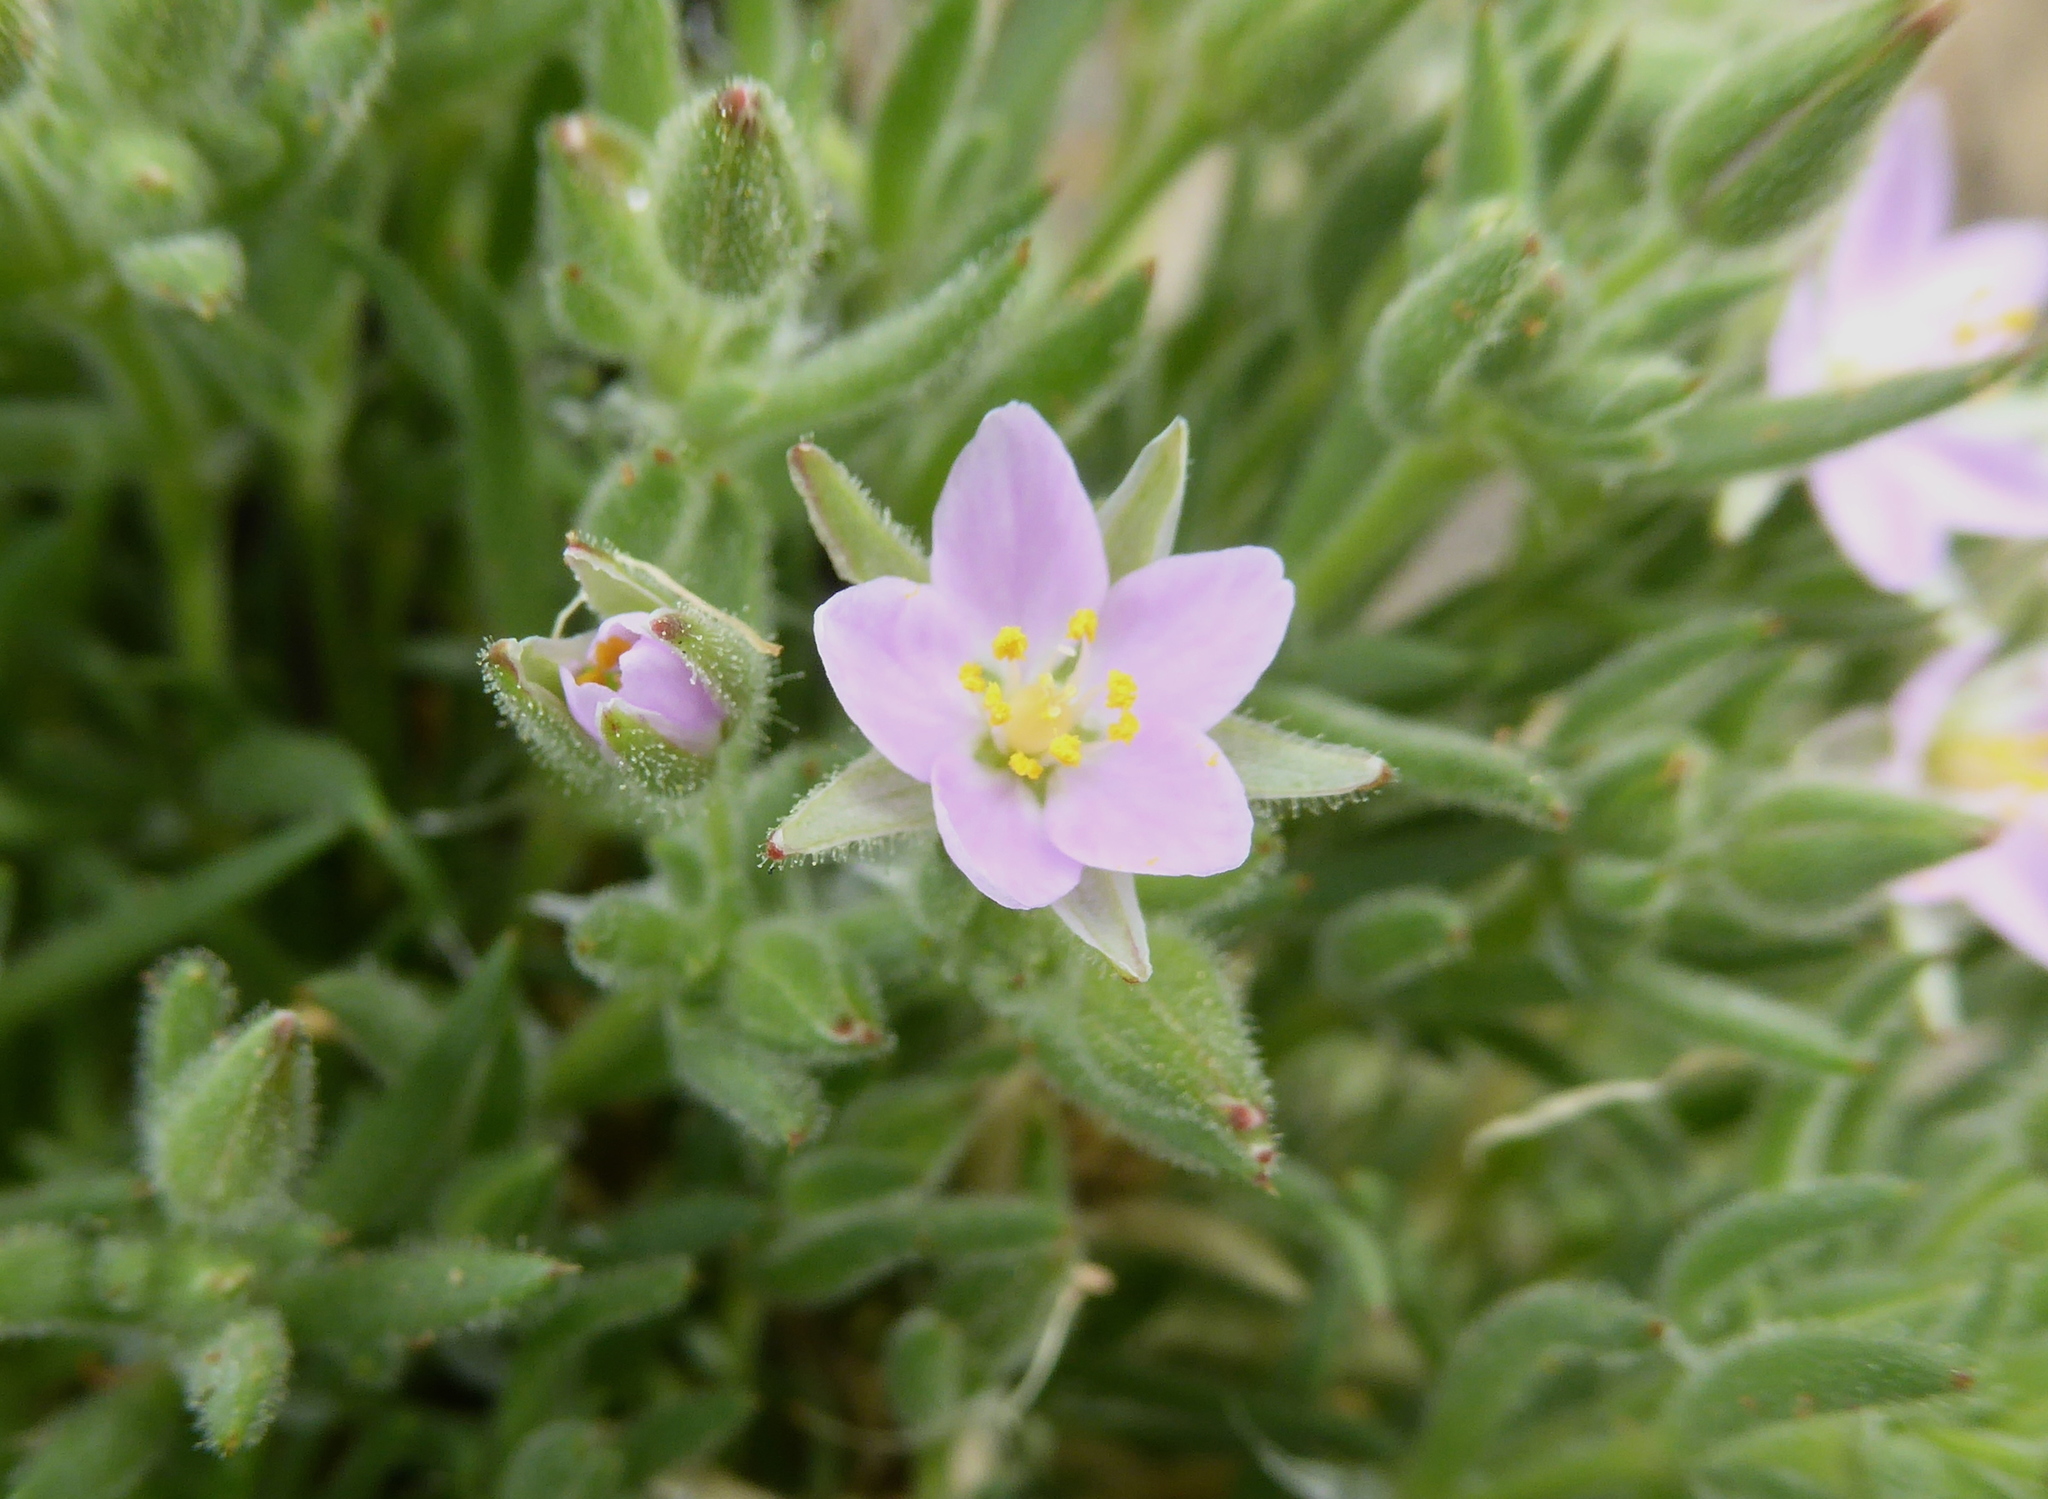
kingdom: Plantae
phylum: Tracheophyta
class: Magnoliopsida
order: Caryophyllales
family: Caryophyllaceae
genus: Spergularia
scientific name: Spergularia macrotheca
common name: Beach sand-spurrey
